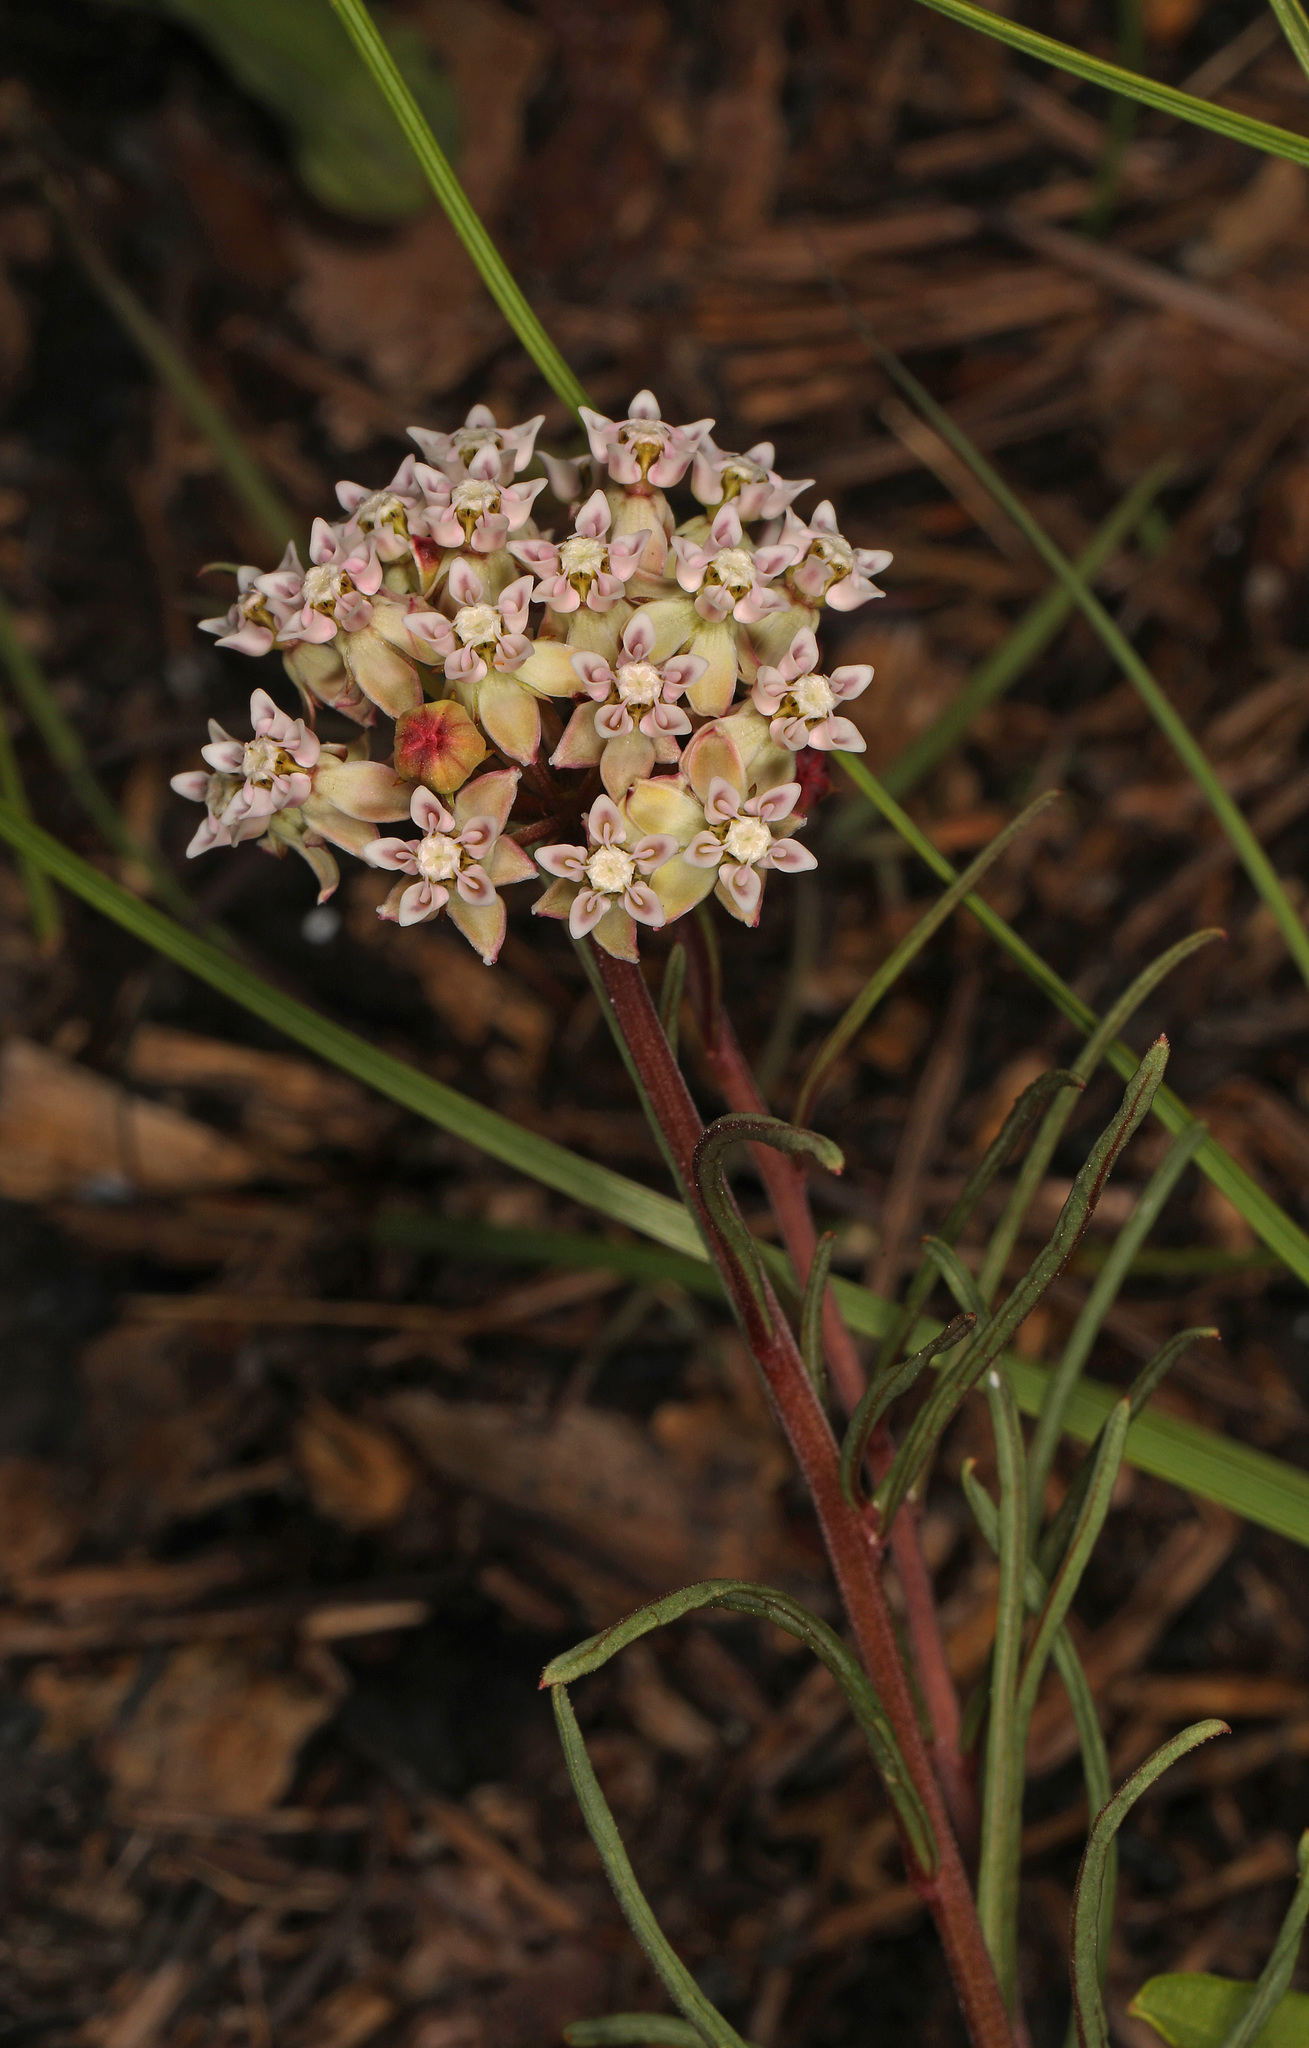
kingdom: Plantae
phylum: Tracheophyta
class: Magnoliopsida
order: Gentianales
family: Apocynaceae
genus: Asclepias
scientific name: Asclepias michauxii
